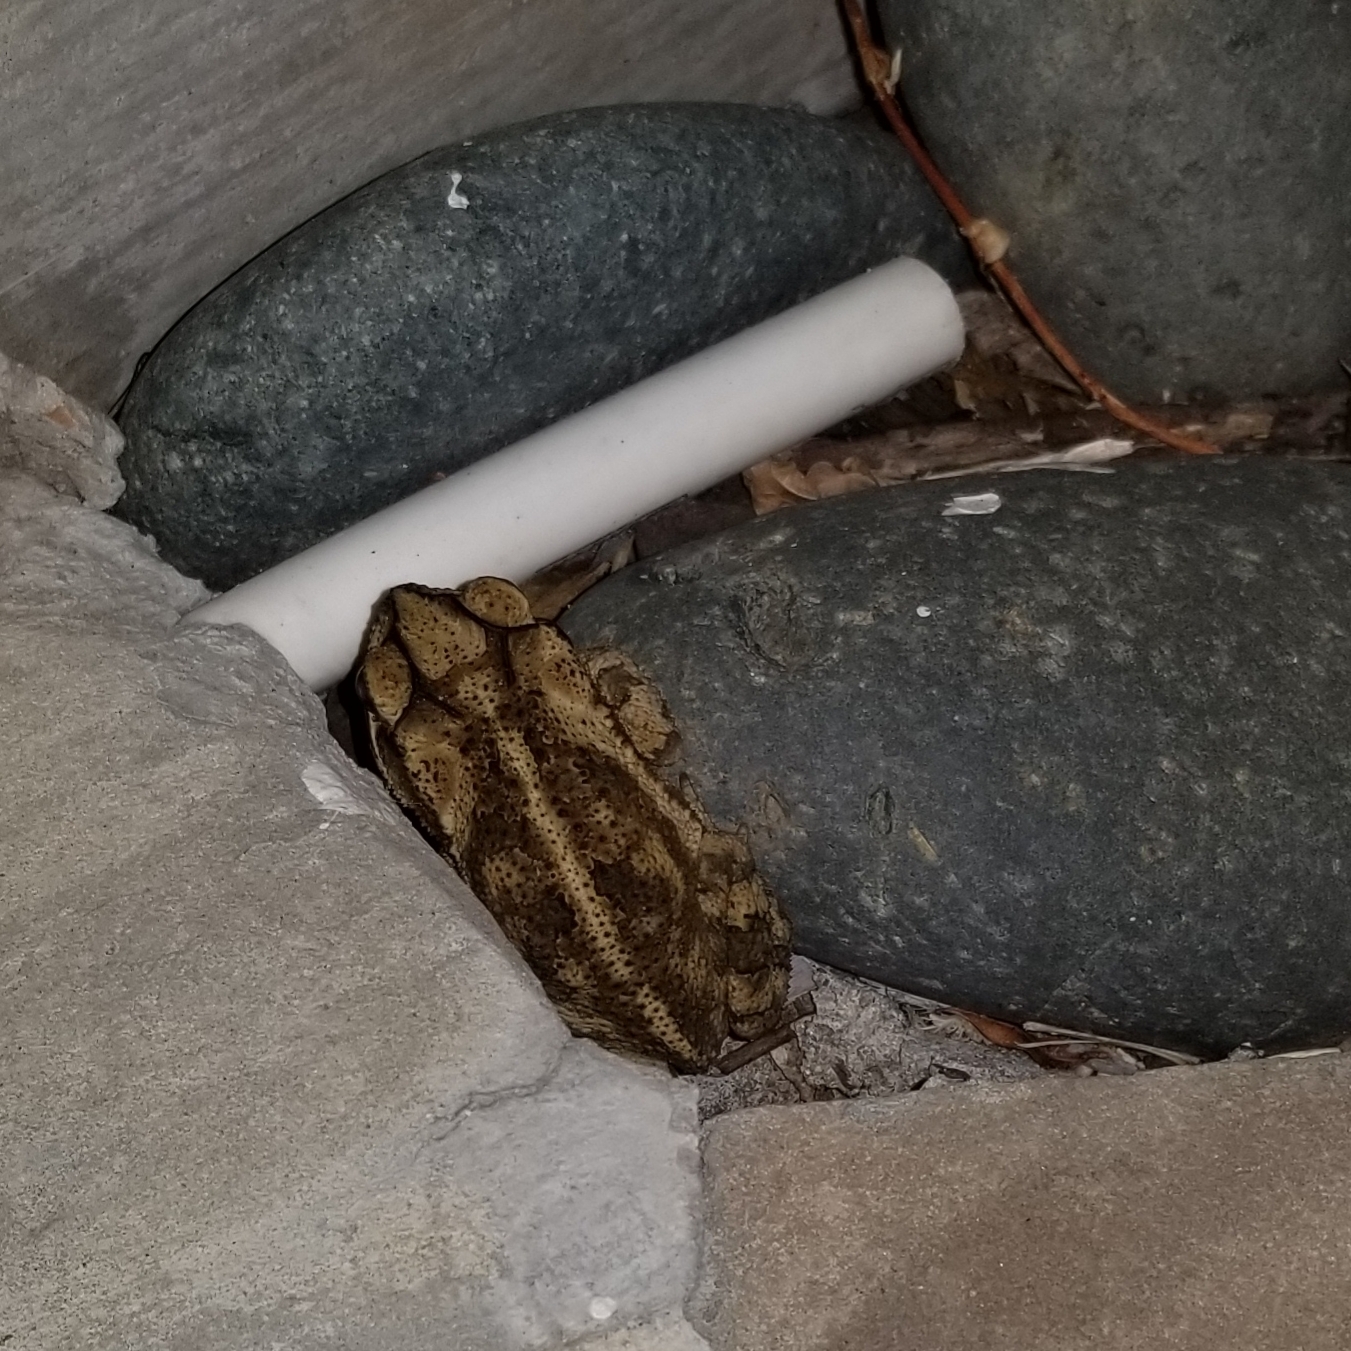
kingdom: Animalia
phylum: Chordata
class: Amphibia
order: Anura
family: Bufonidae
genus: Incilius
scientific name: Incilius nebulifer
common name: Gulf coast toad
